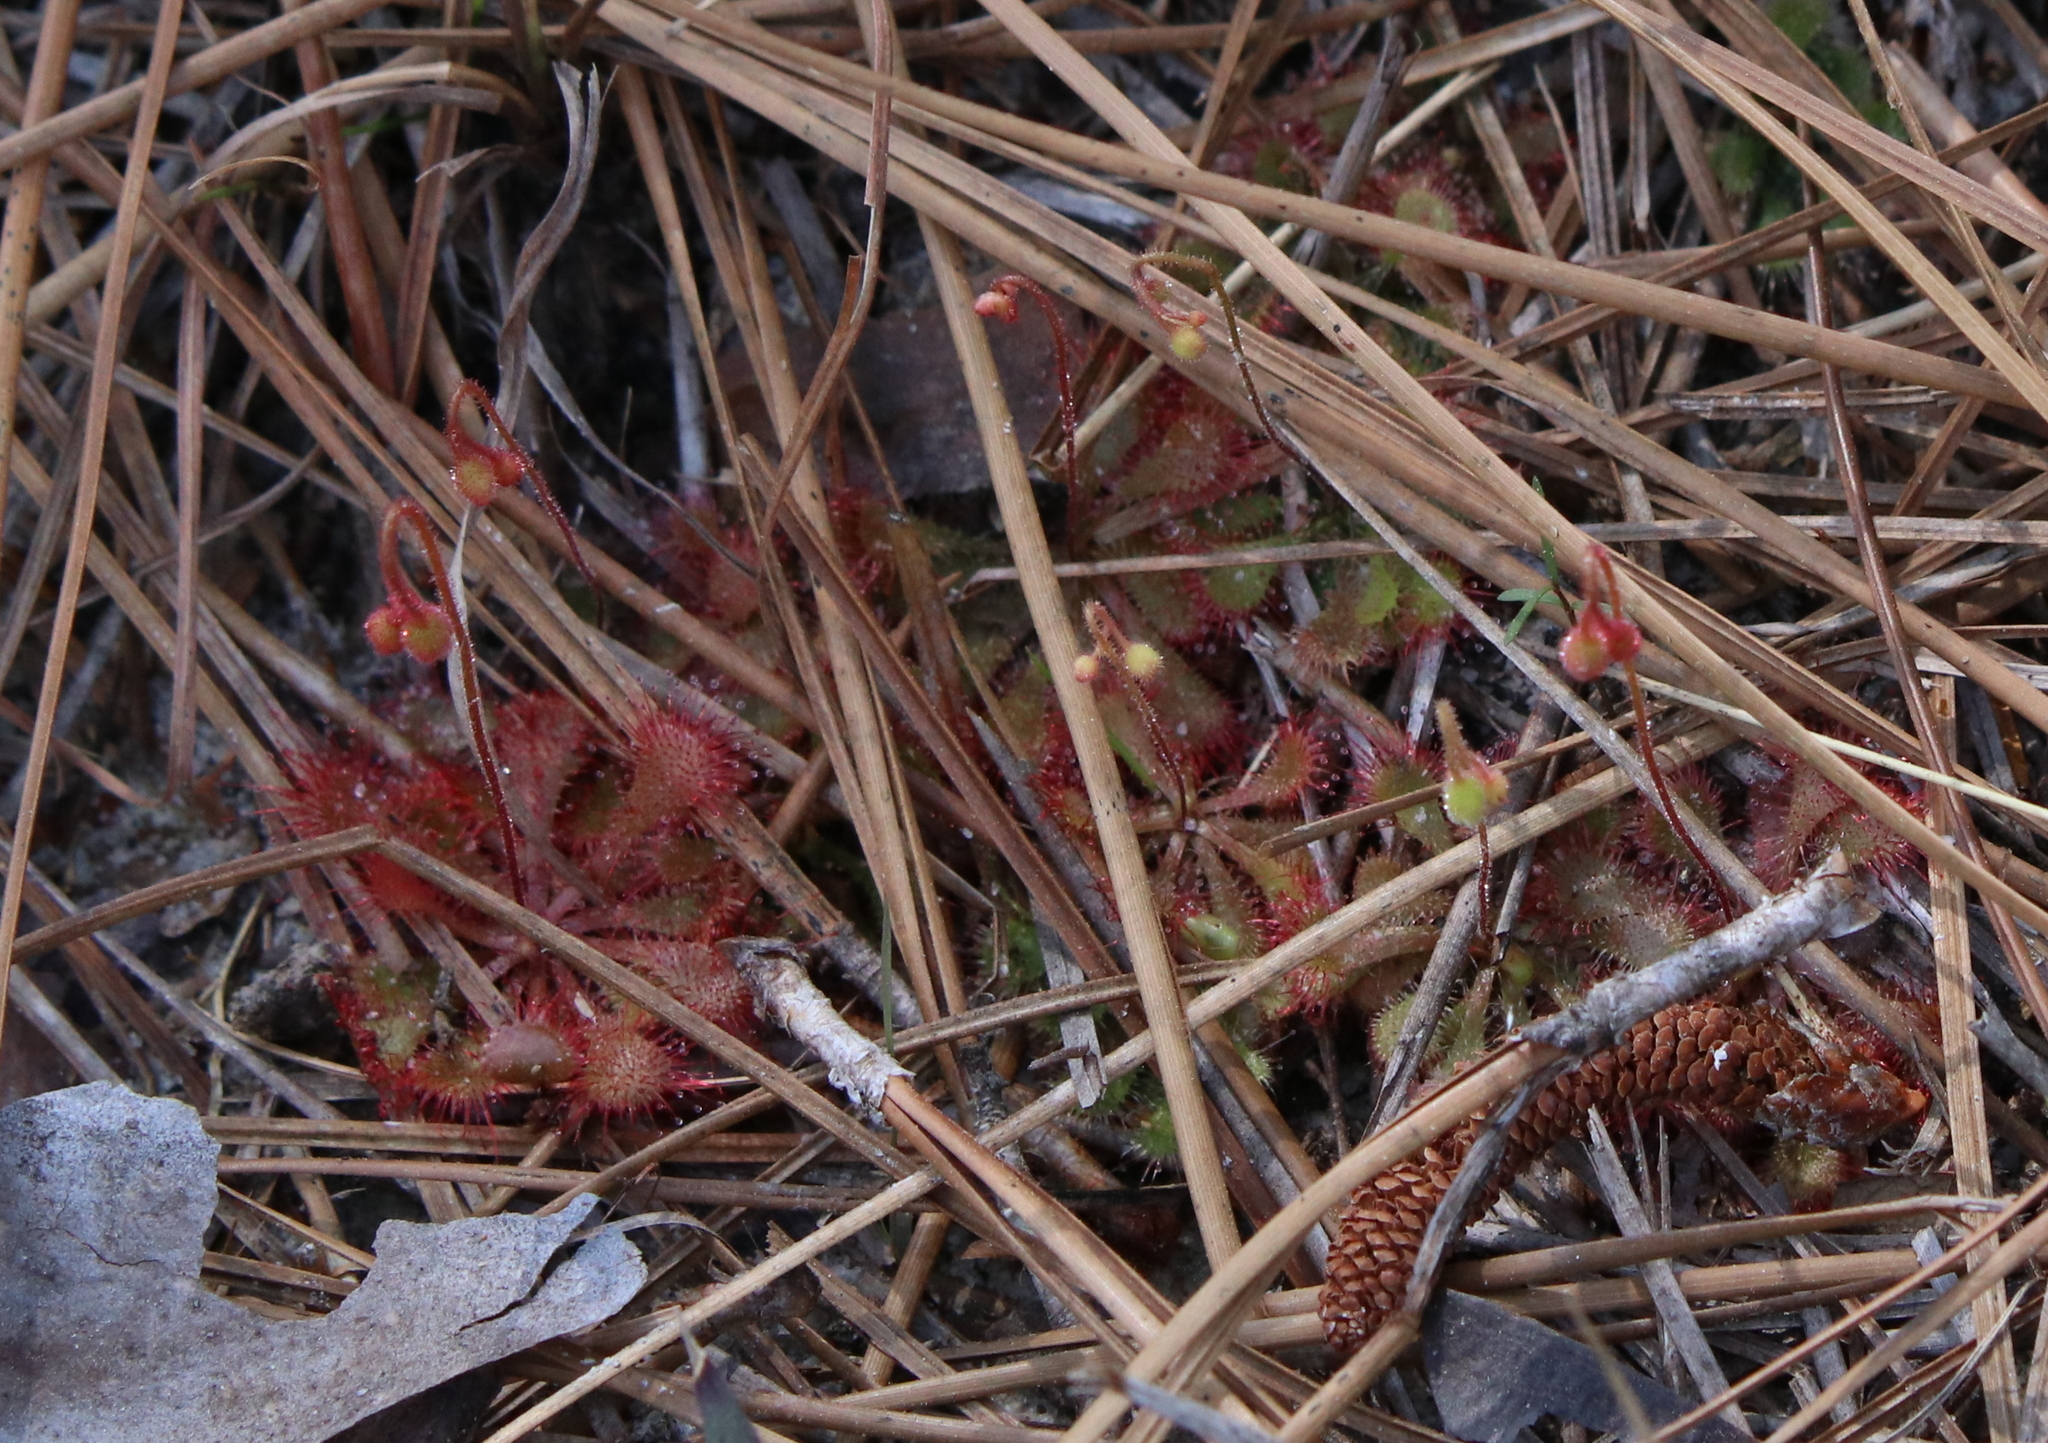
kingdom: Plantae
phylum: Tracheophyta
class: Magnoliopsida
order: Caryophyllales
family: Droseraceae
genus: Drosera
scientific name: Drosera brevifolia
